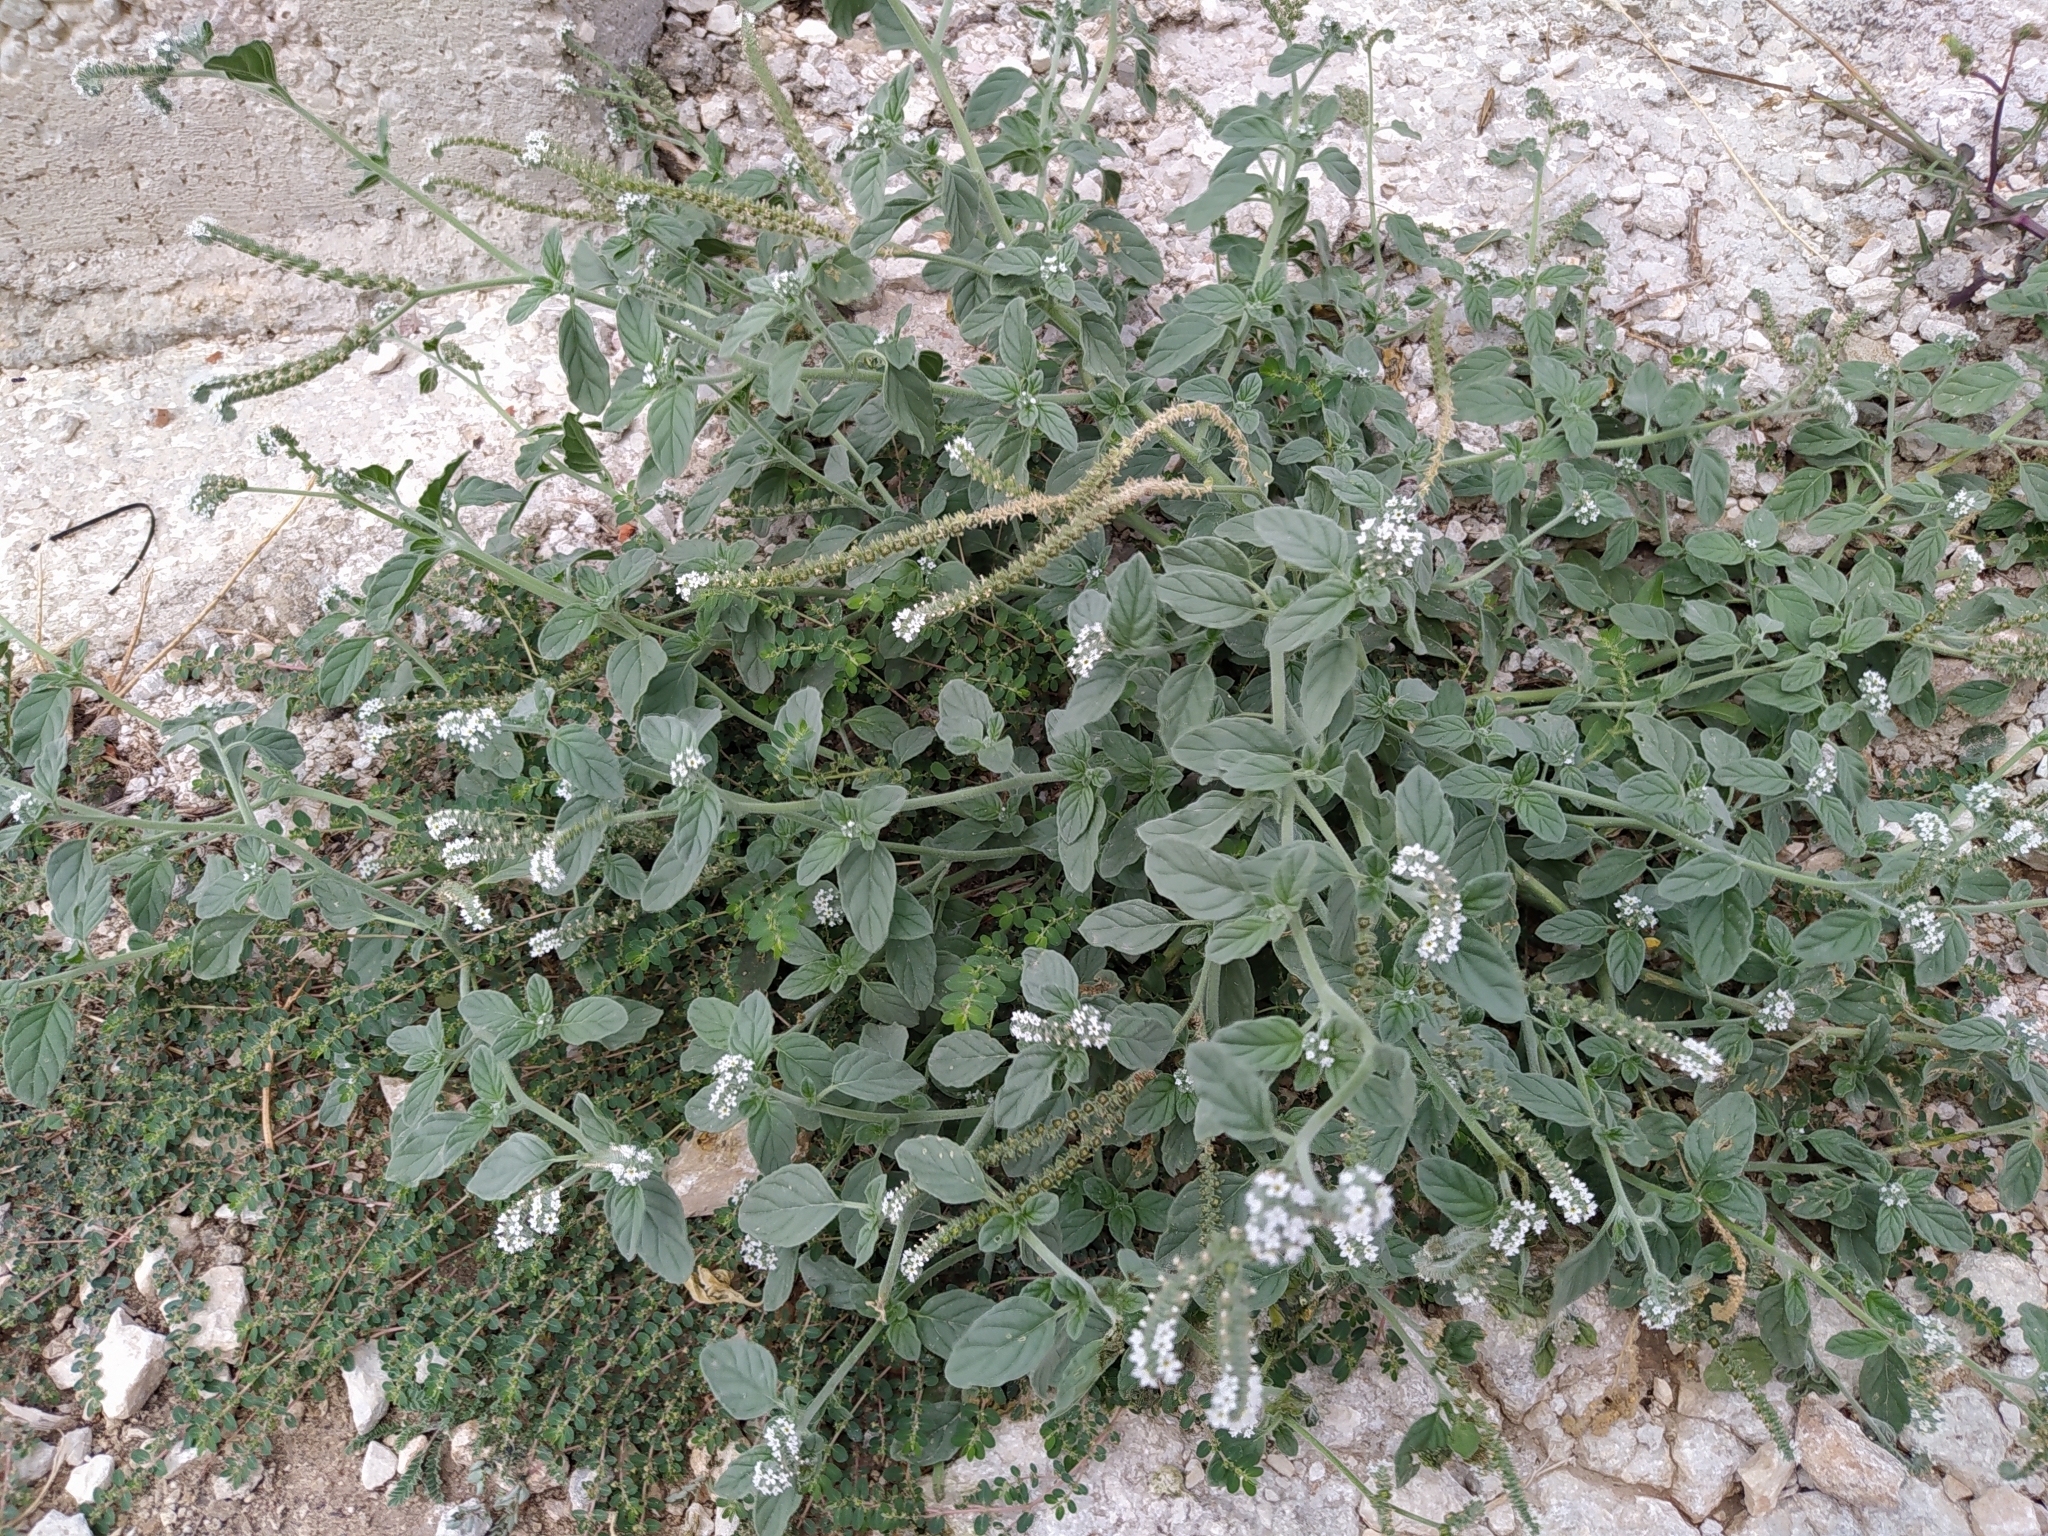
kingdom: Plantae
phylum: Tracheophyta
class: Magnoliopsida
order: Boraginales
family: Heliotropiaceae
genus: Heliotropium
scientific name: Heliotropium europaeum
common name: European heliotrope
